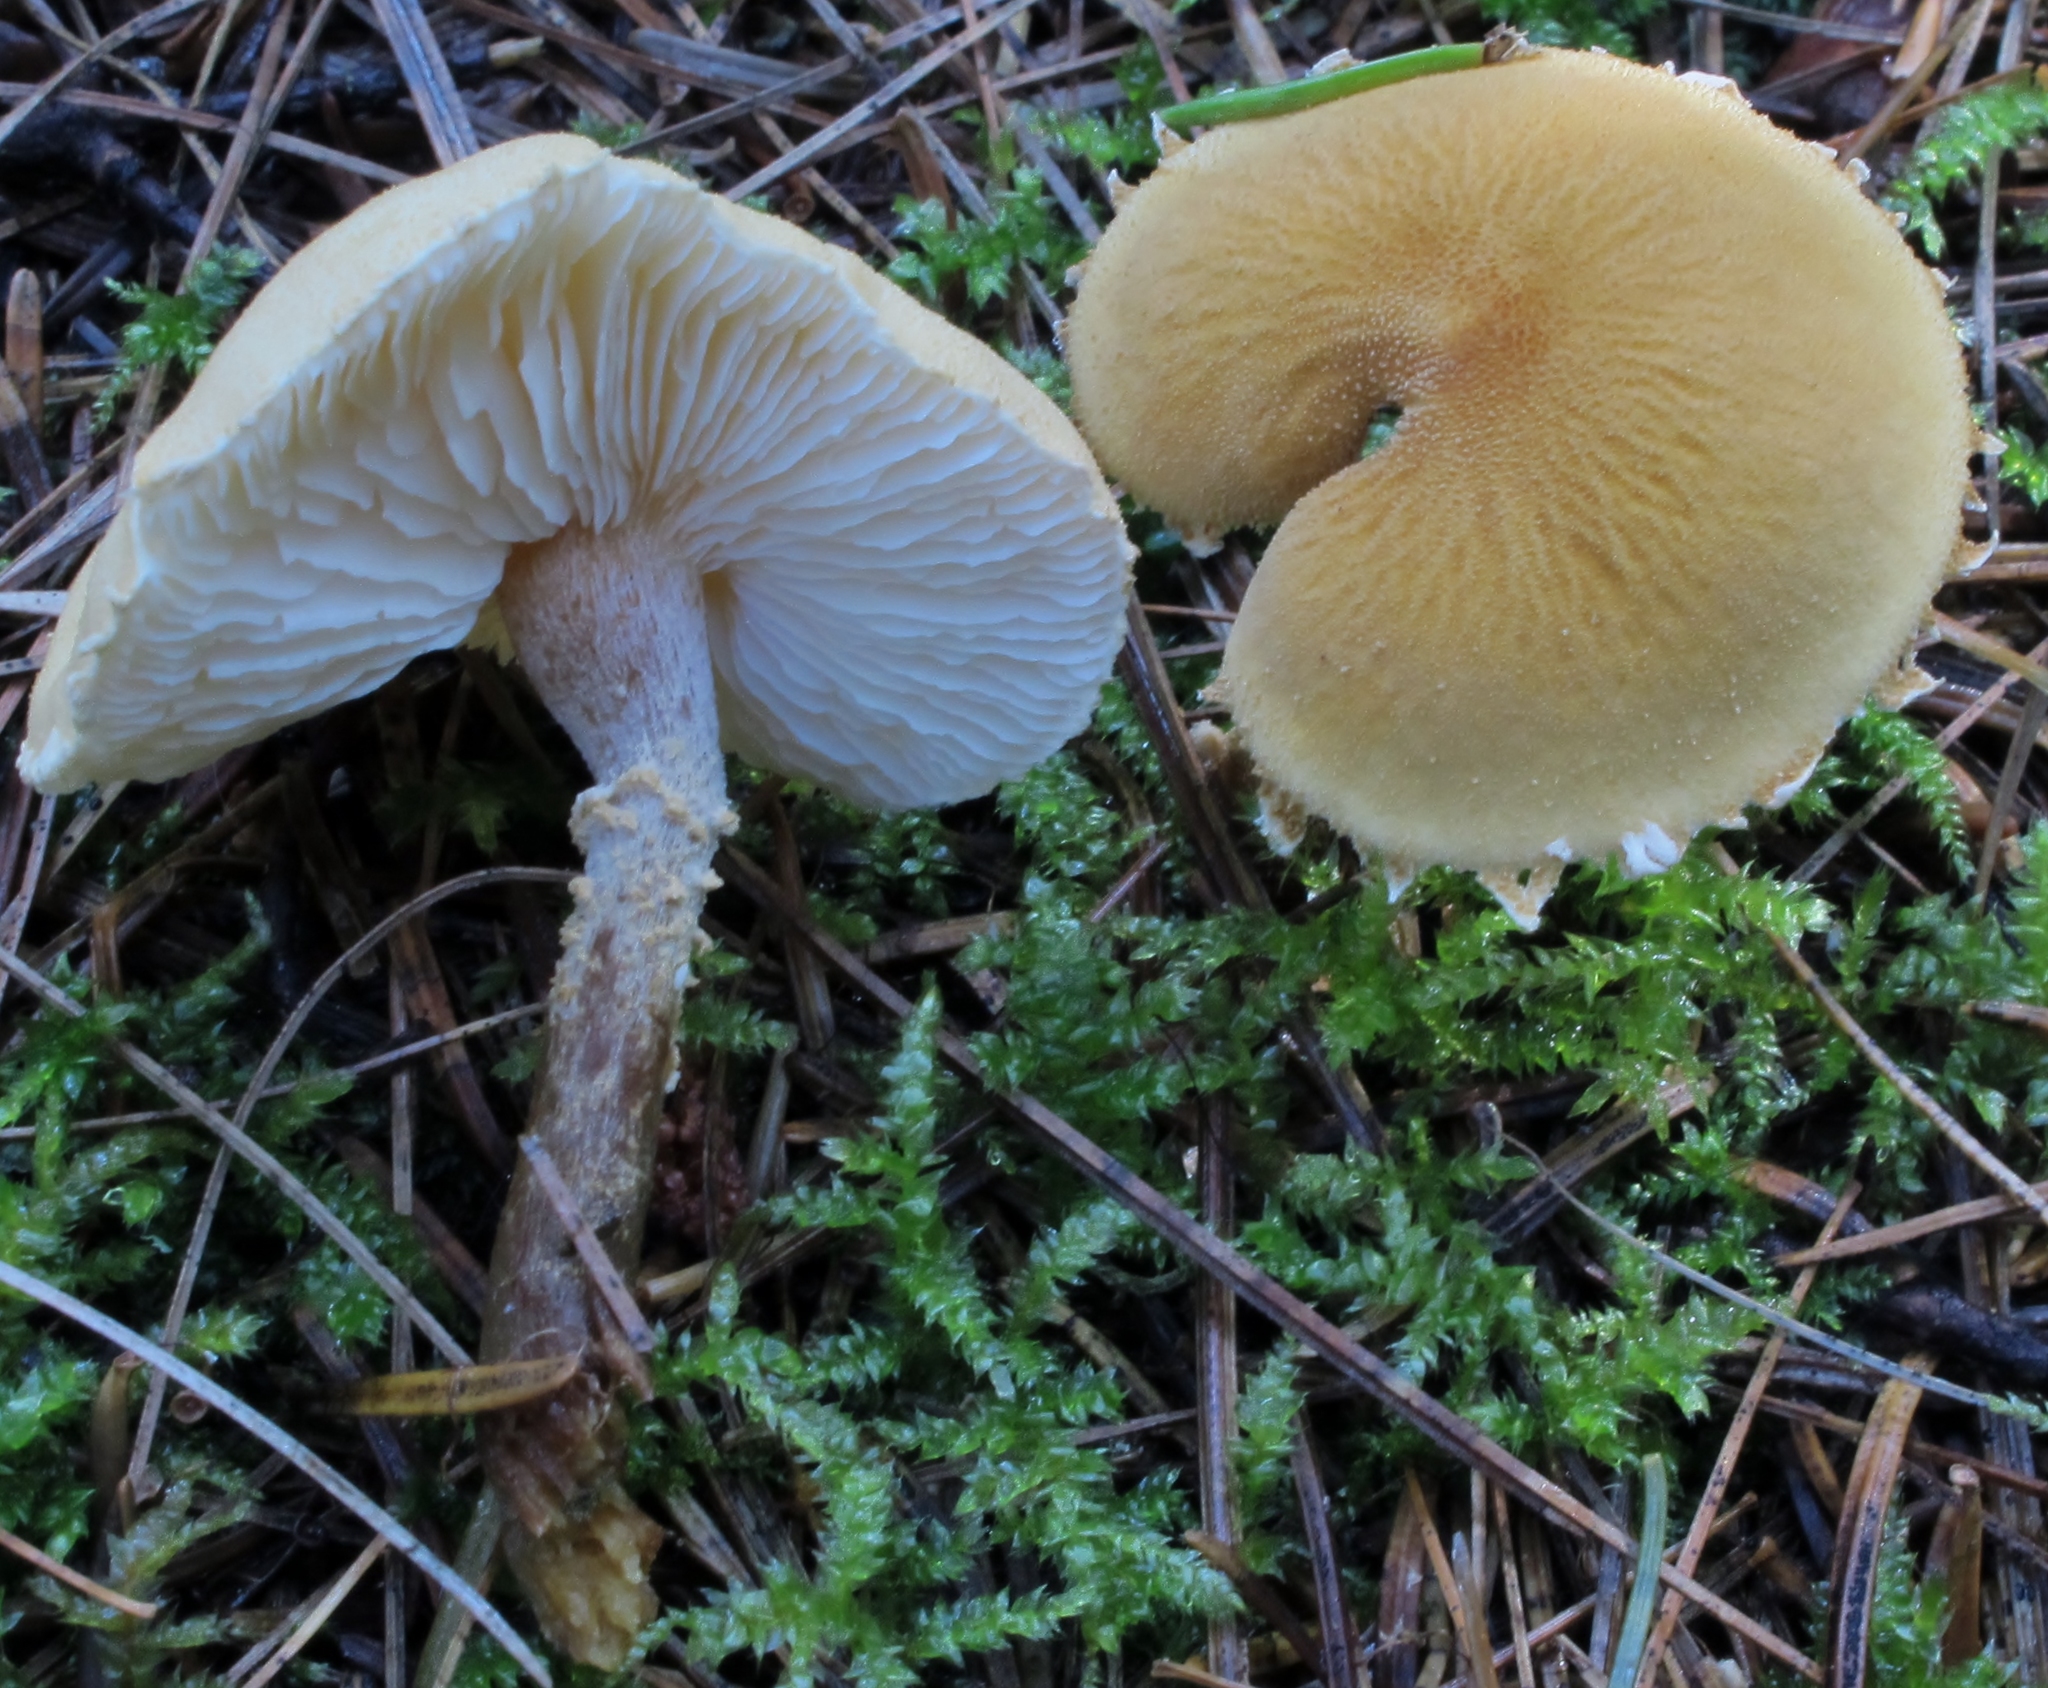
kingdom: Fungi
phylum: Basidiomycota
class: Agaricomycetes
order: Agaricales
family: Tricholomataceae
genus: Cystoderma
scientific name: Cystoderma amianthinum
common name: Earthy powdercap
